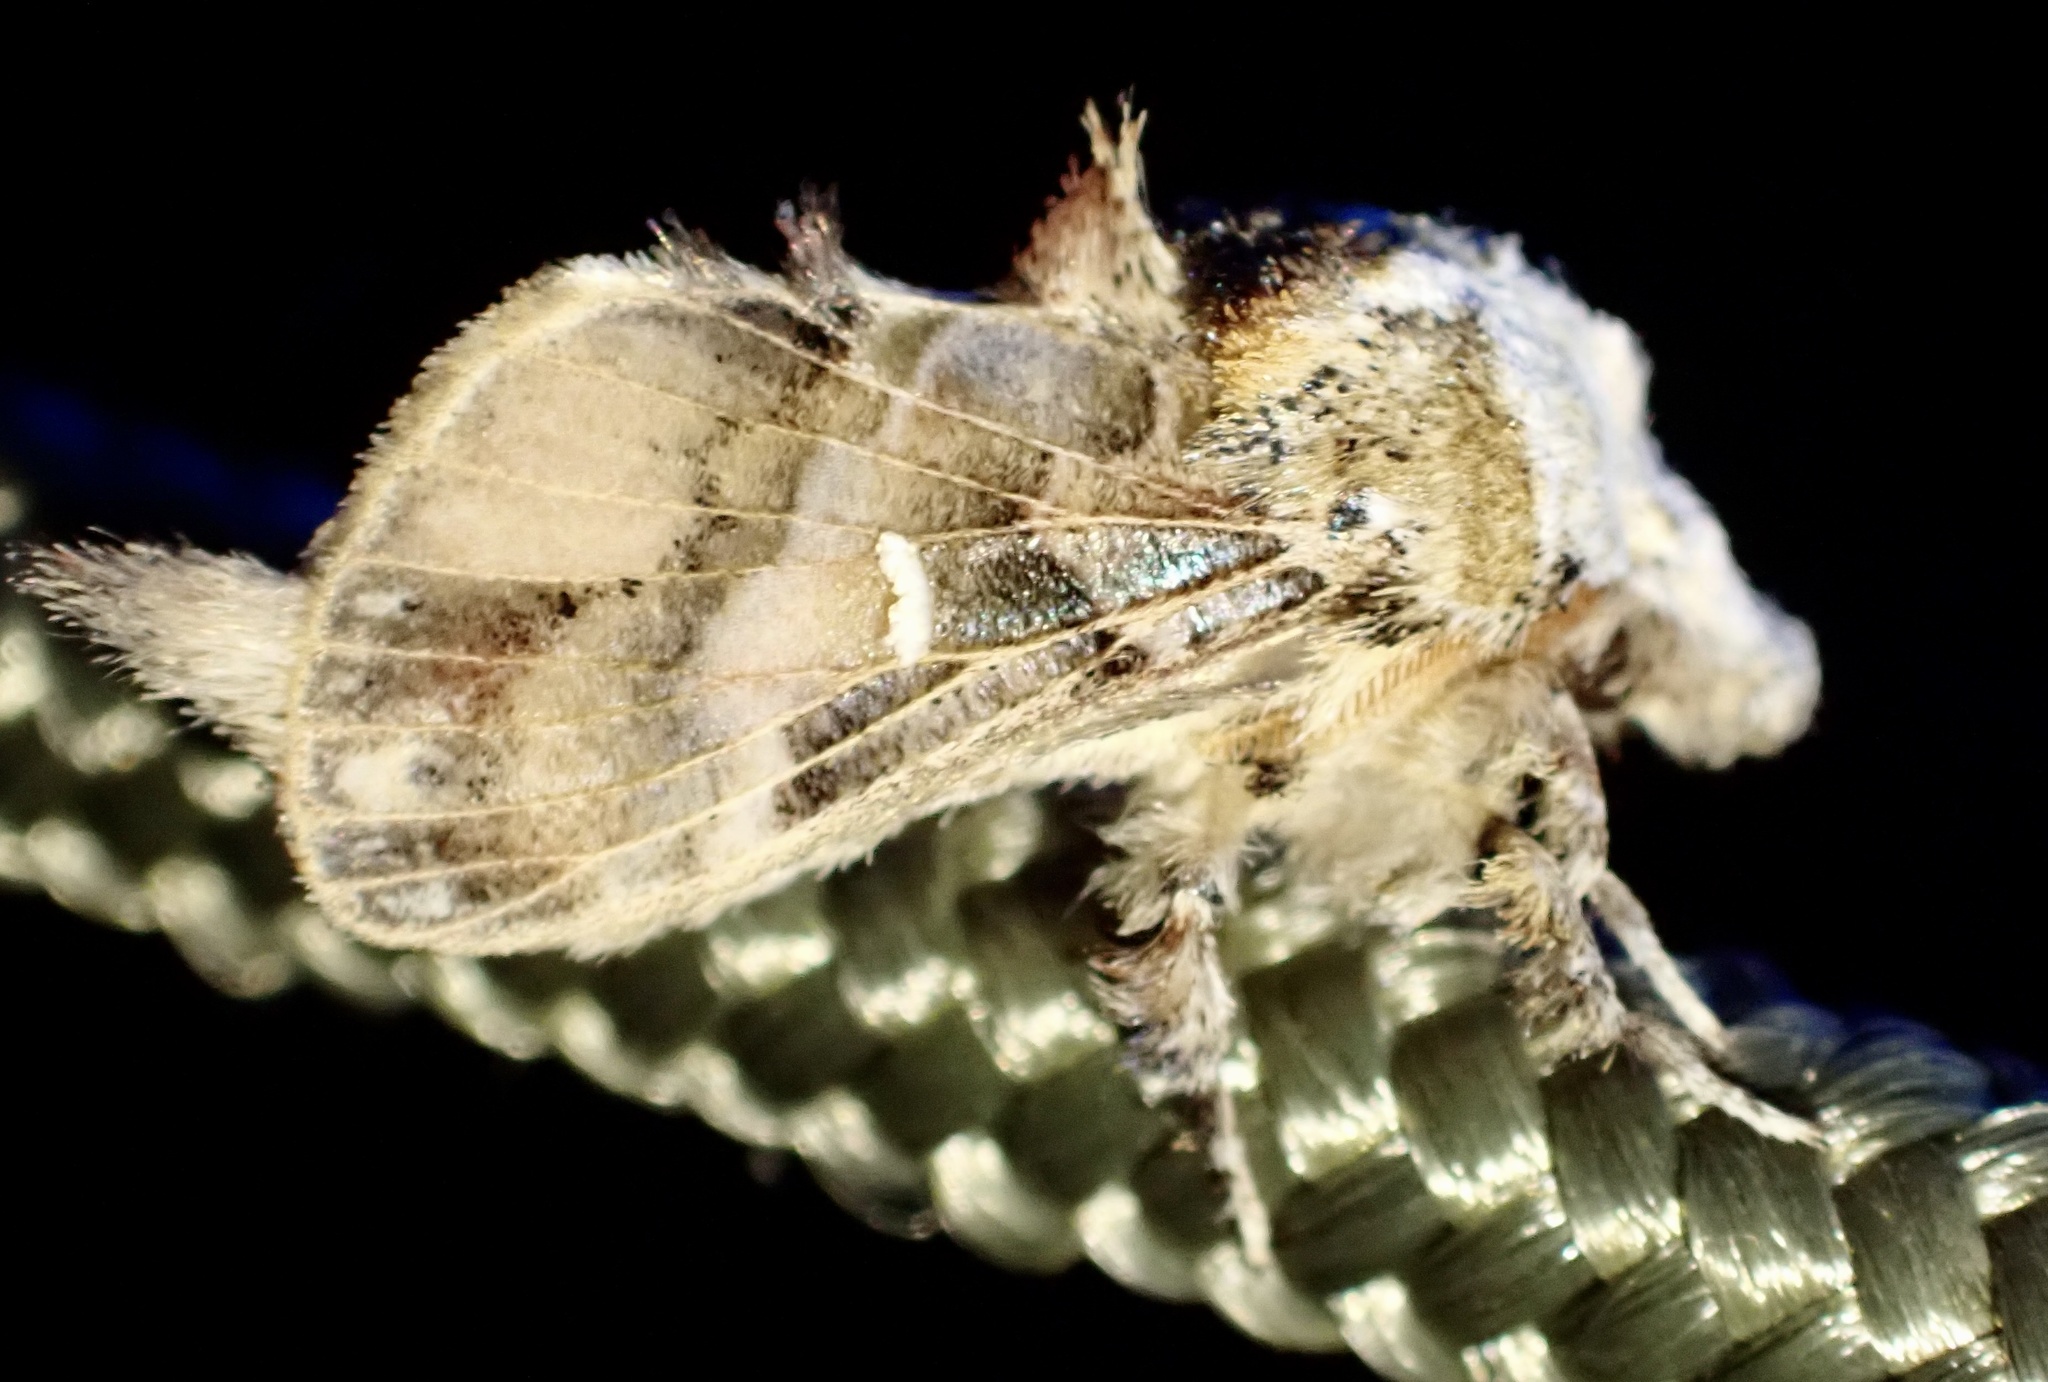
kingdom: Animalia
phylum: Arthropoda
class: Insecta
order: Lepidoptera
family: Lasiocampidae
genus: Odontocheilopteryx
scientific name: Odontocheilopteryx myxa
